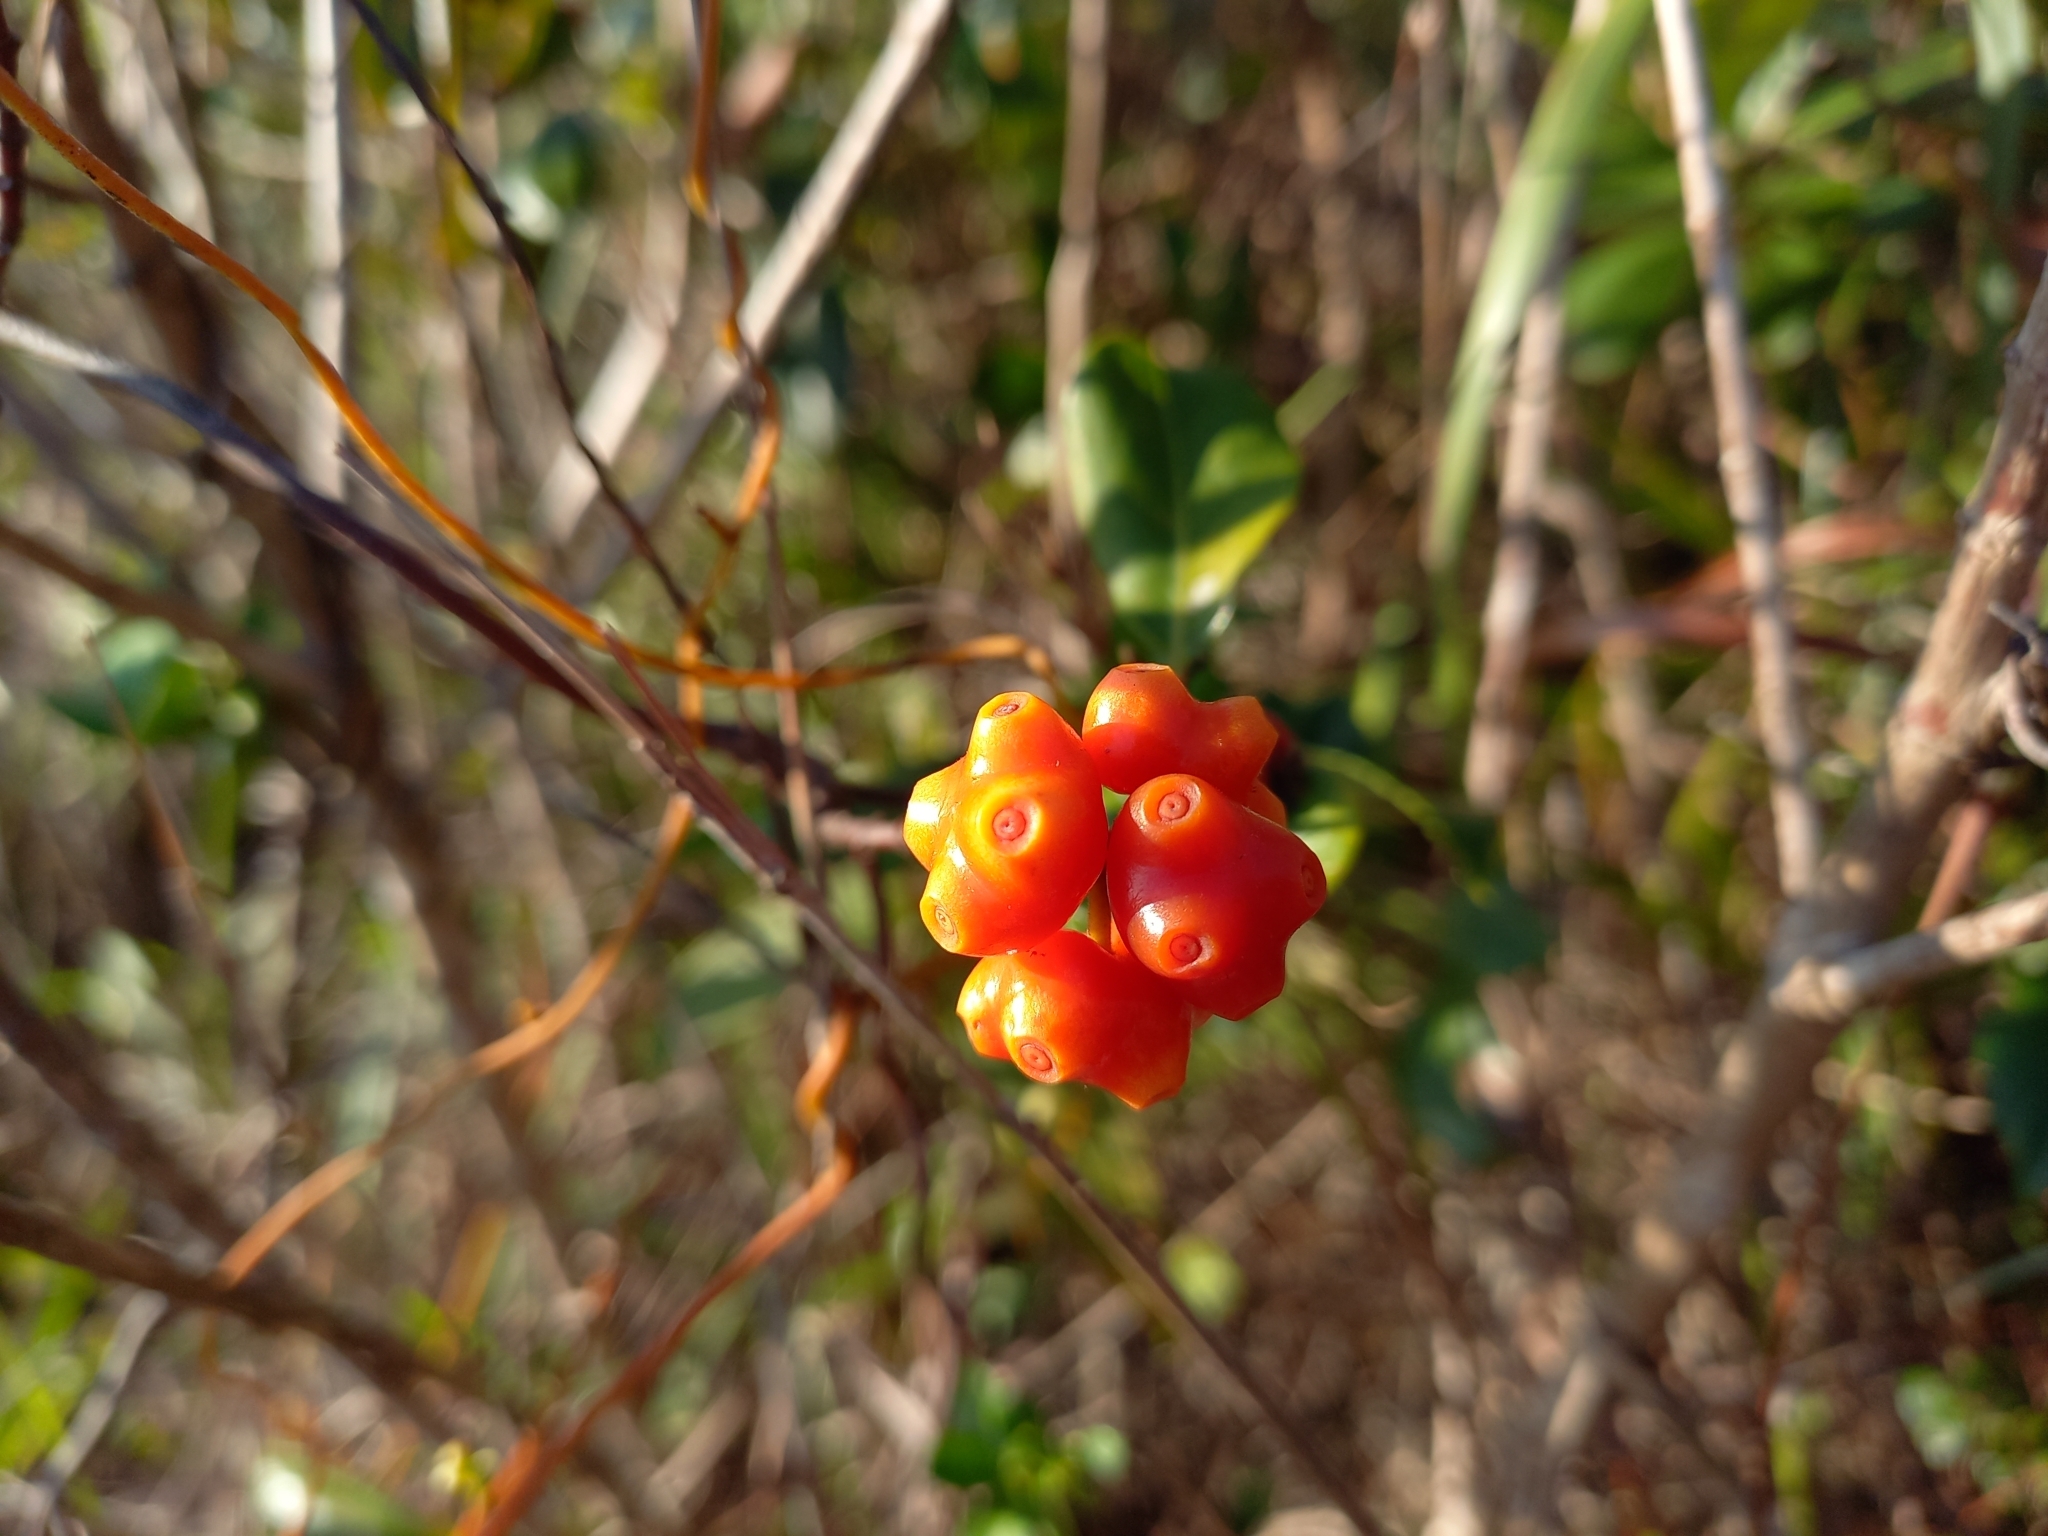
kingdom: Plantae
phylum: Tracheophyta
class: Magnoliopsida
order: Gentianales
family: Rubiaceae
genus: Gynochthodes
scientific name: Gynochthodes parvifolia
